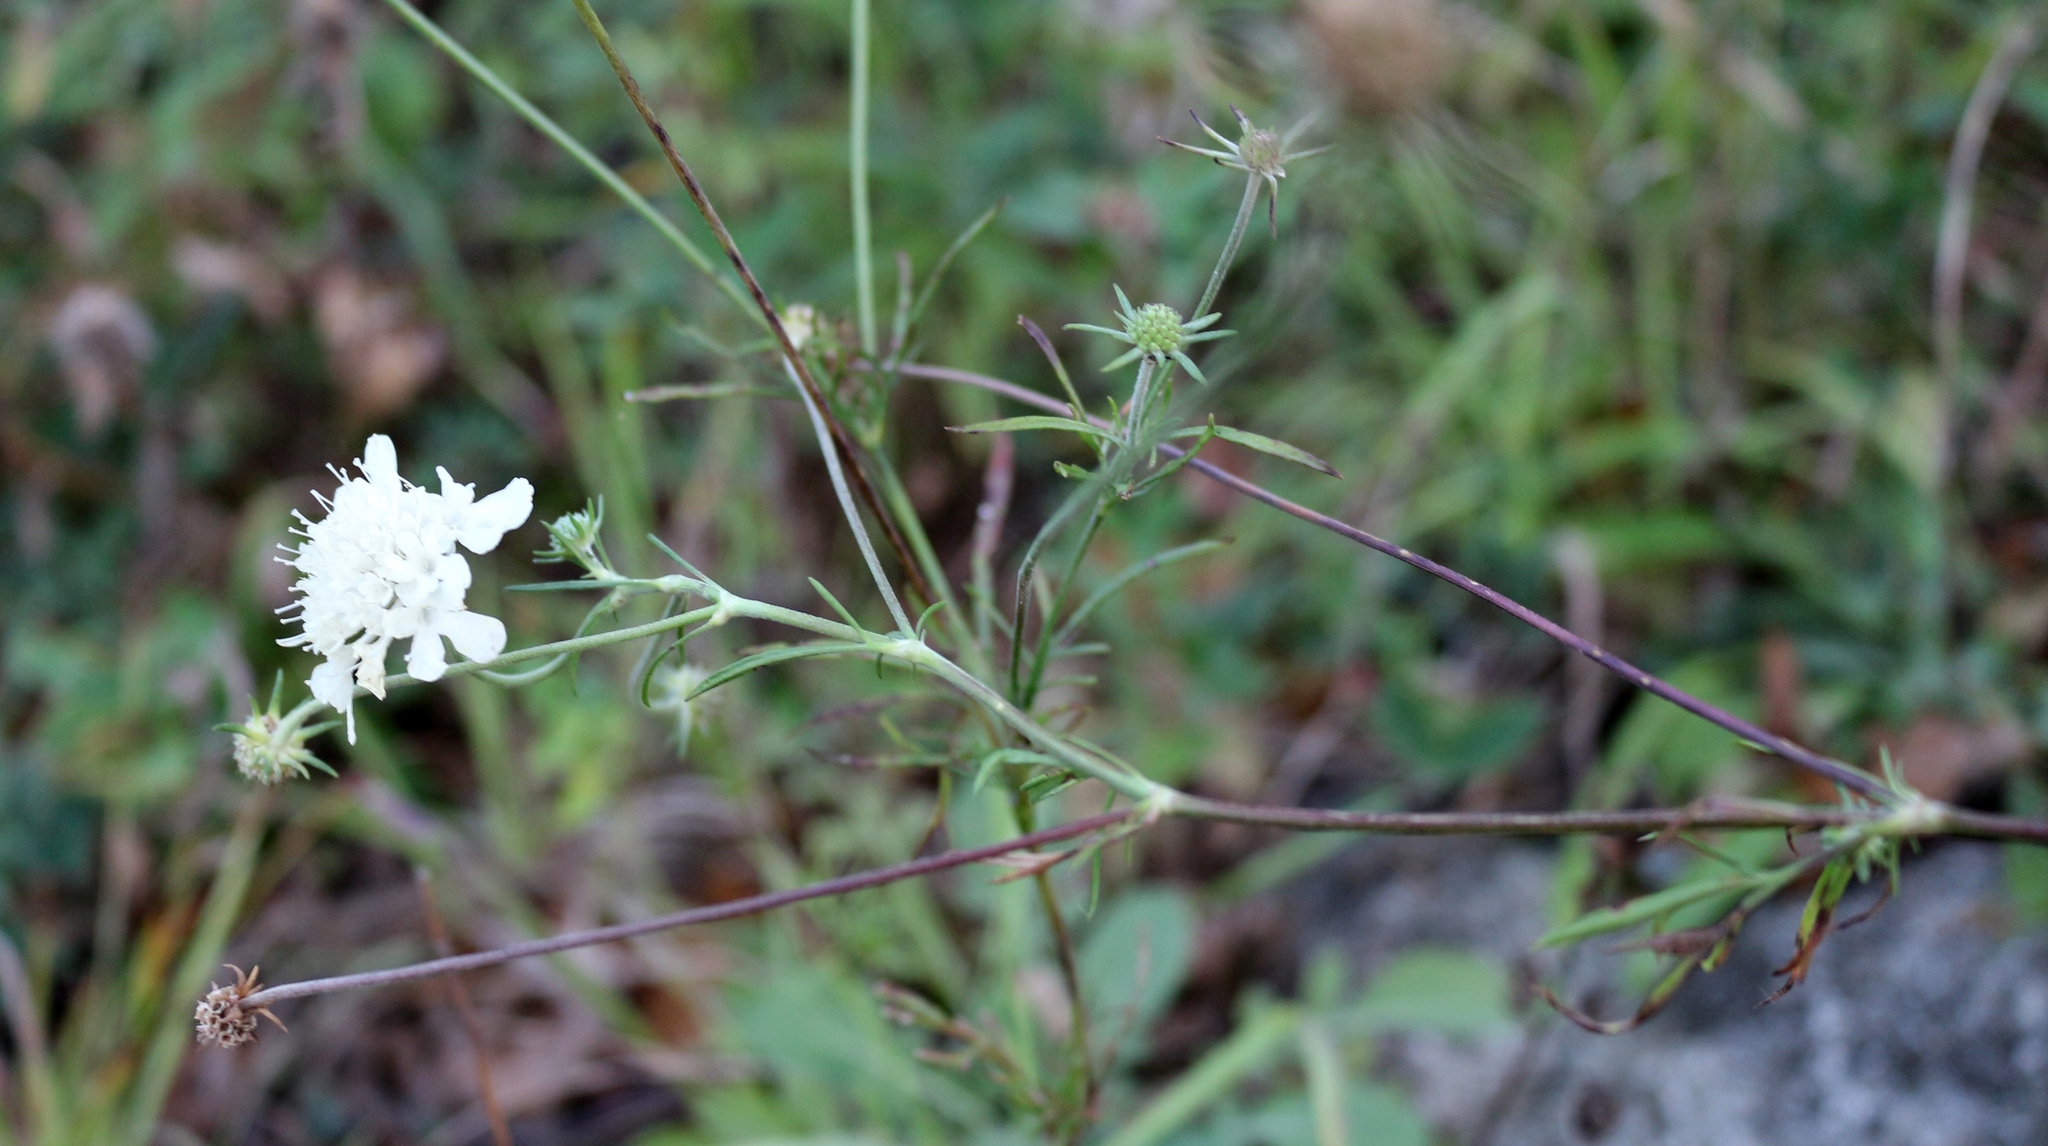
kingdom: Plantae
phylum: Tracheophyta
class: Magnoliopsida
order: Dipsacales
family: Caprifoliaceae
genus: Scabiosa
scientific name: Scabiosa bipinnata
